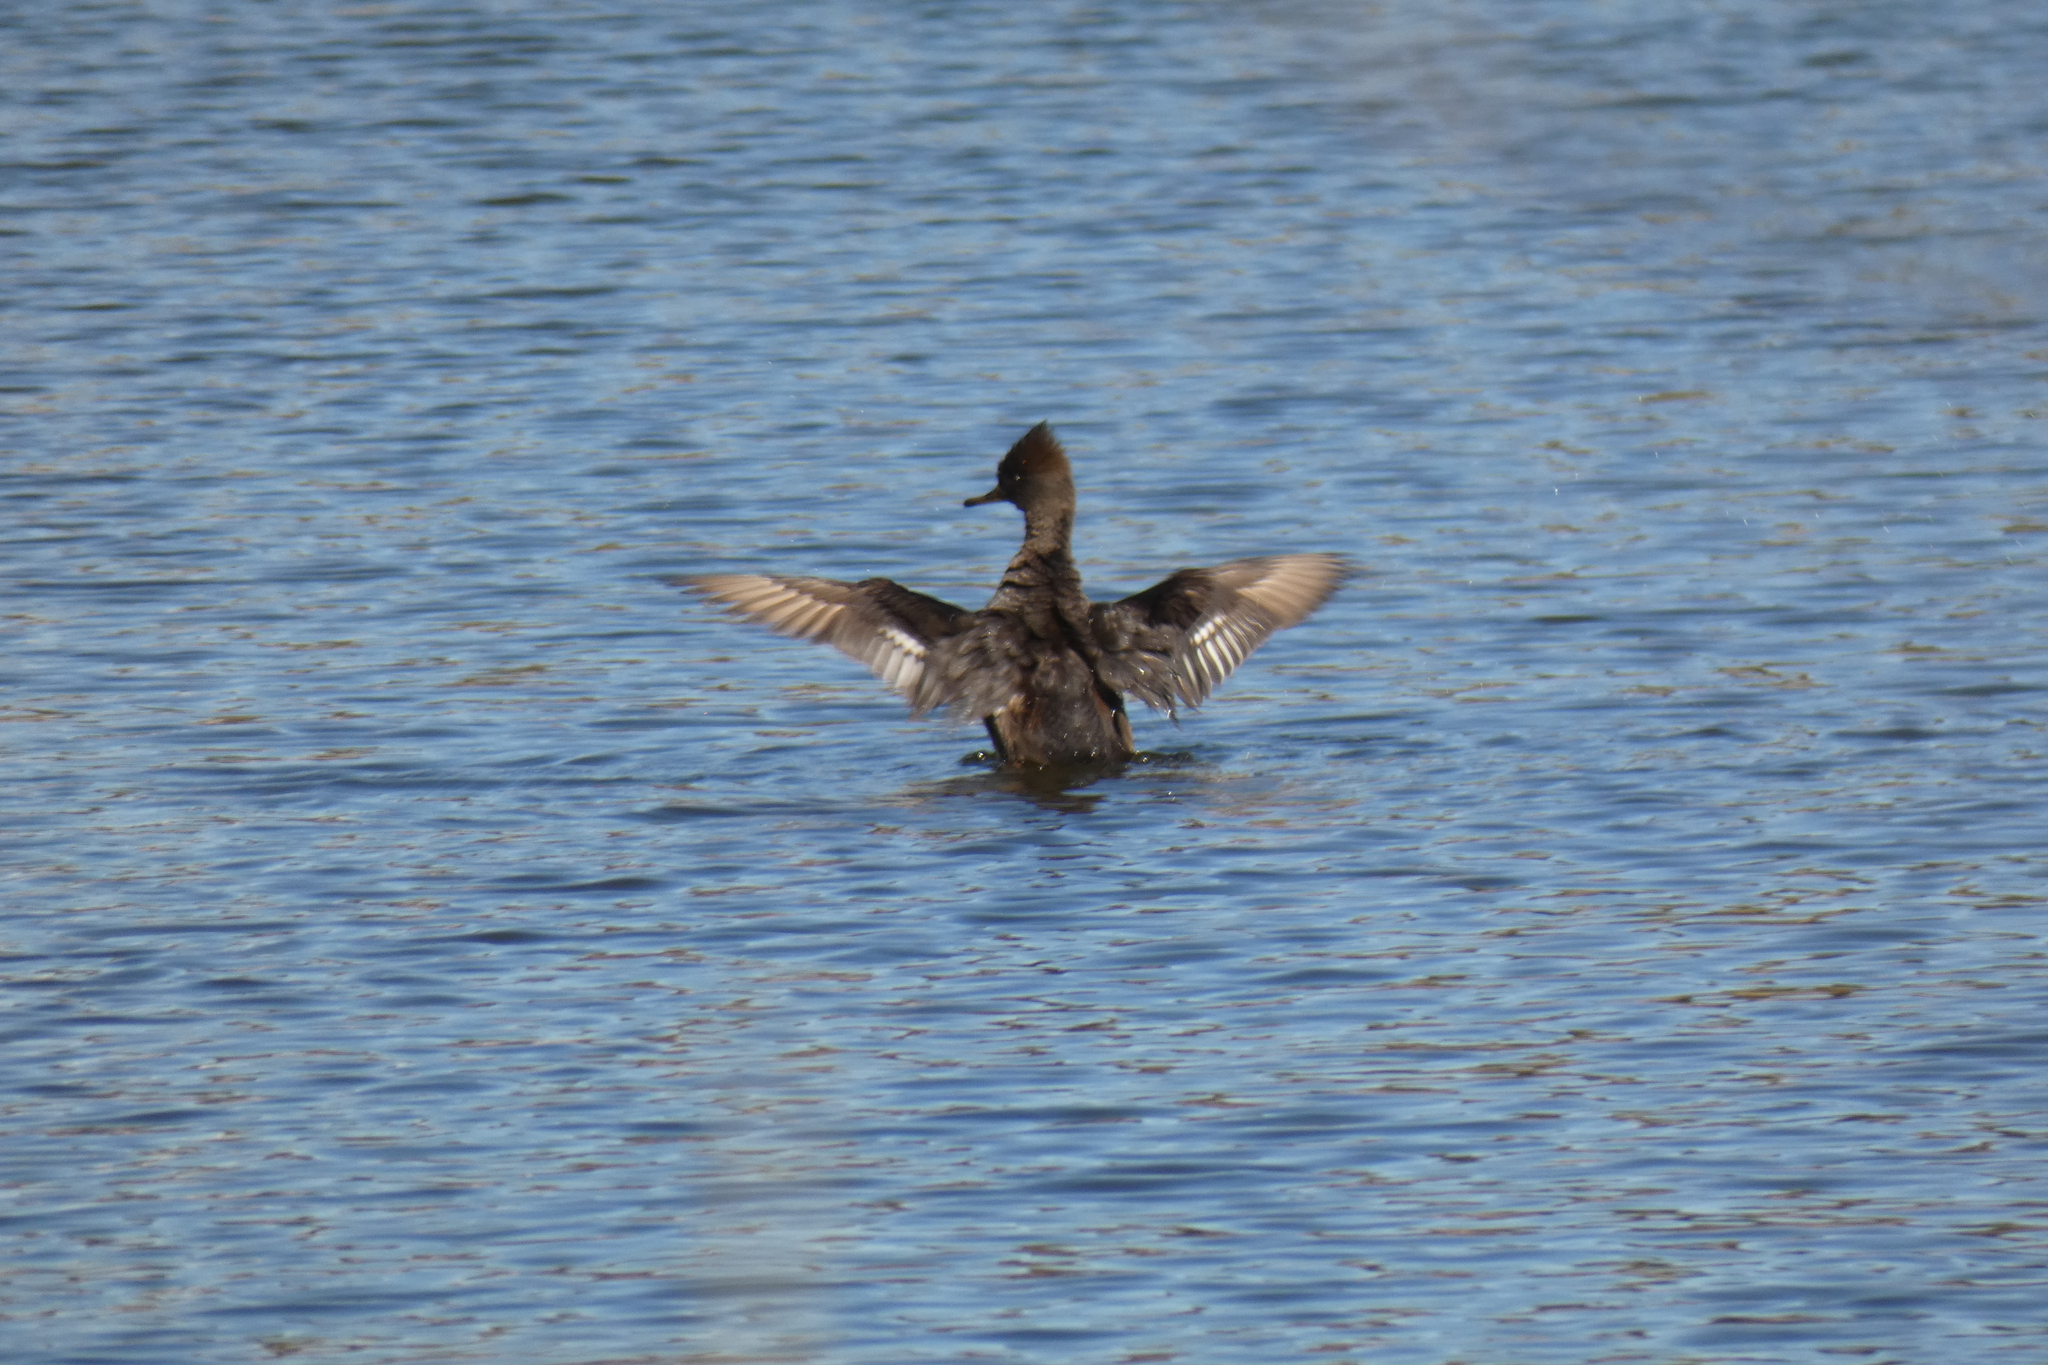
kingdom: Animalia
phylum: Chordata
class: Aves
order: Anseriformes
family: Anatidae
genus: Lophodytes
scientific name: Lophodytes cucullatus
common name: Hooded merganser
